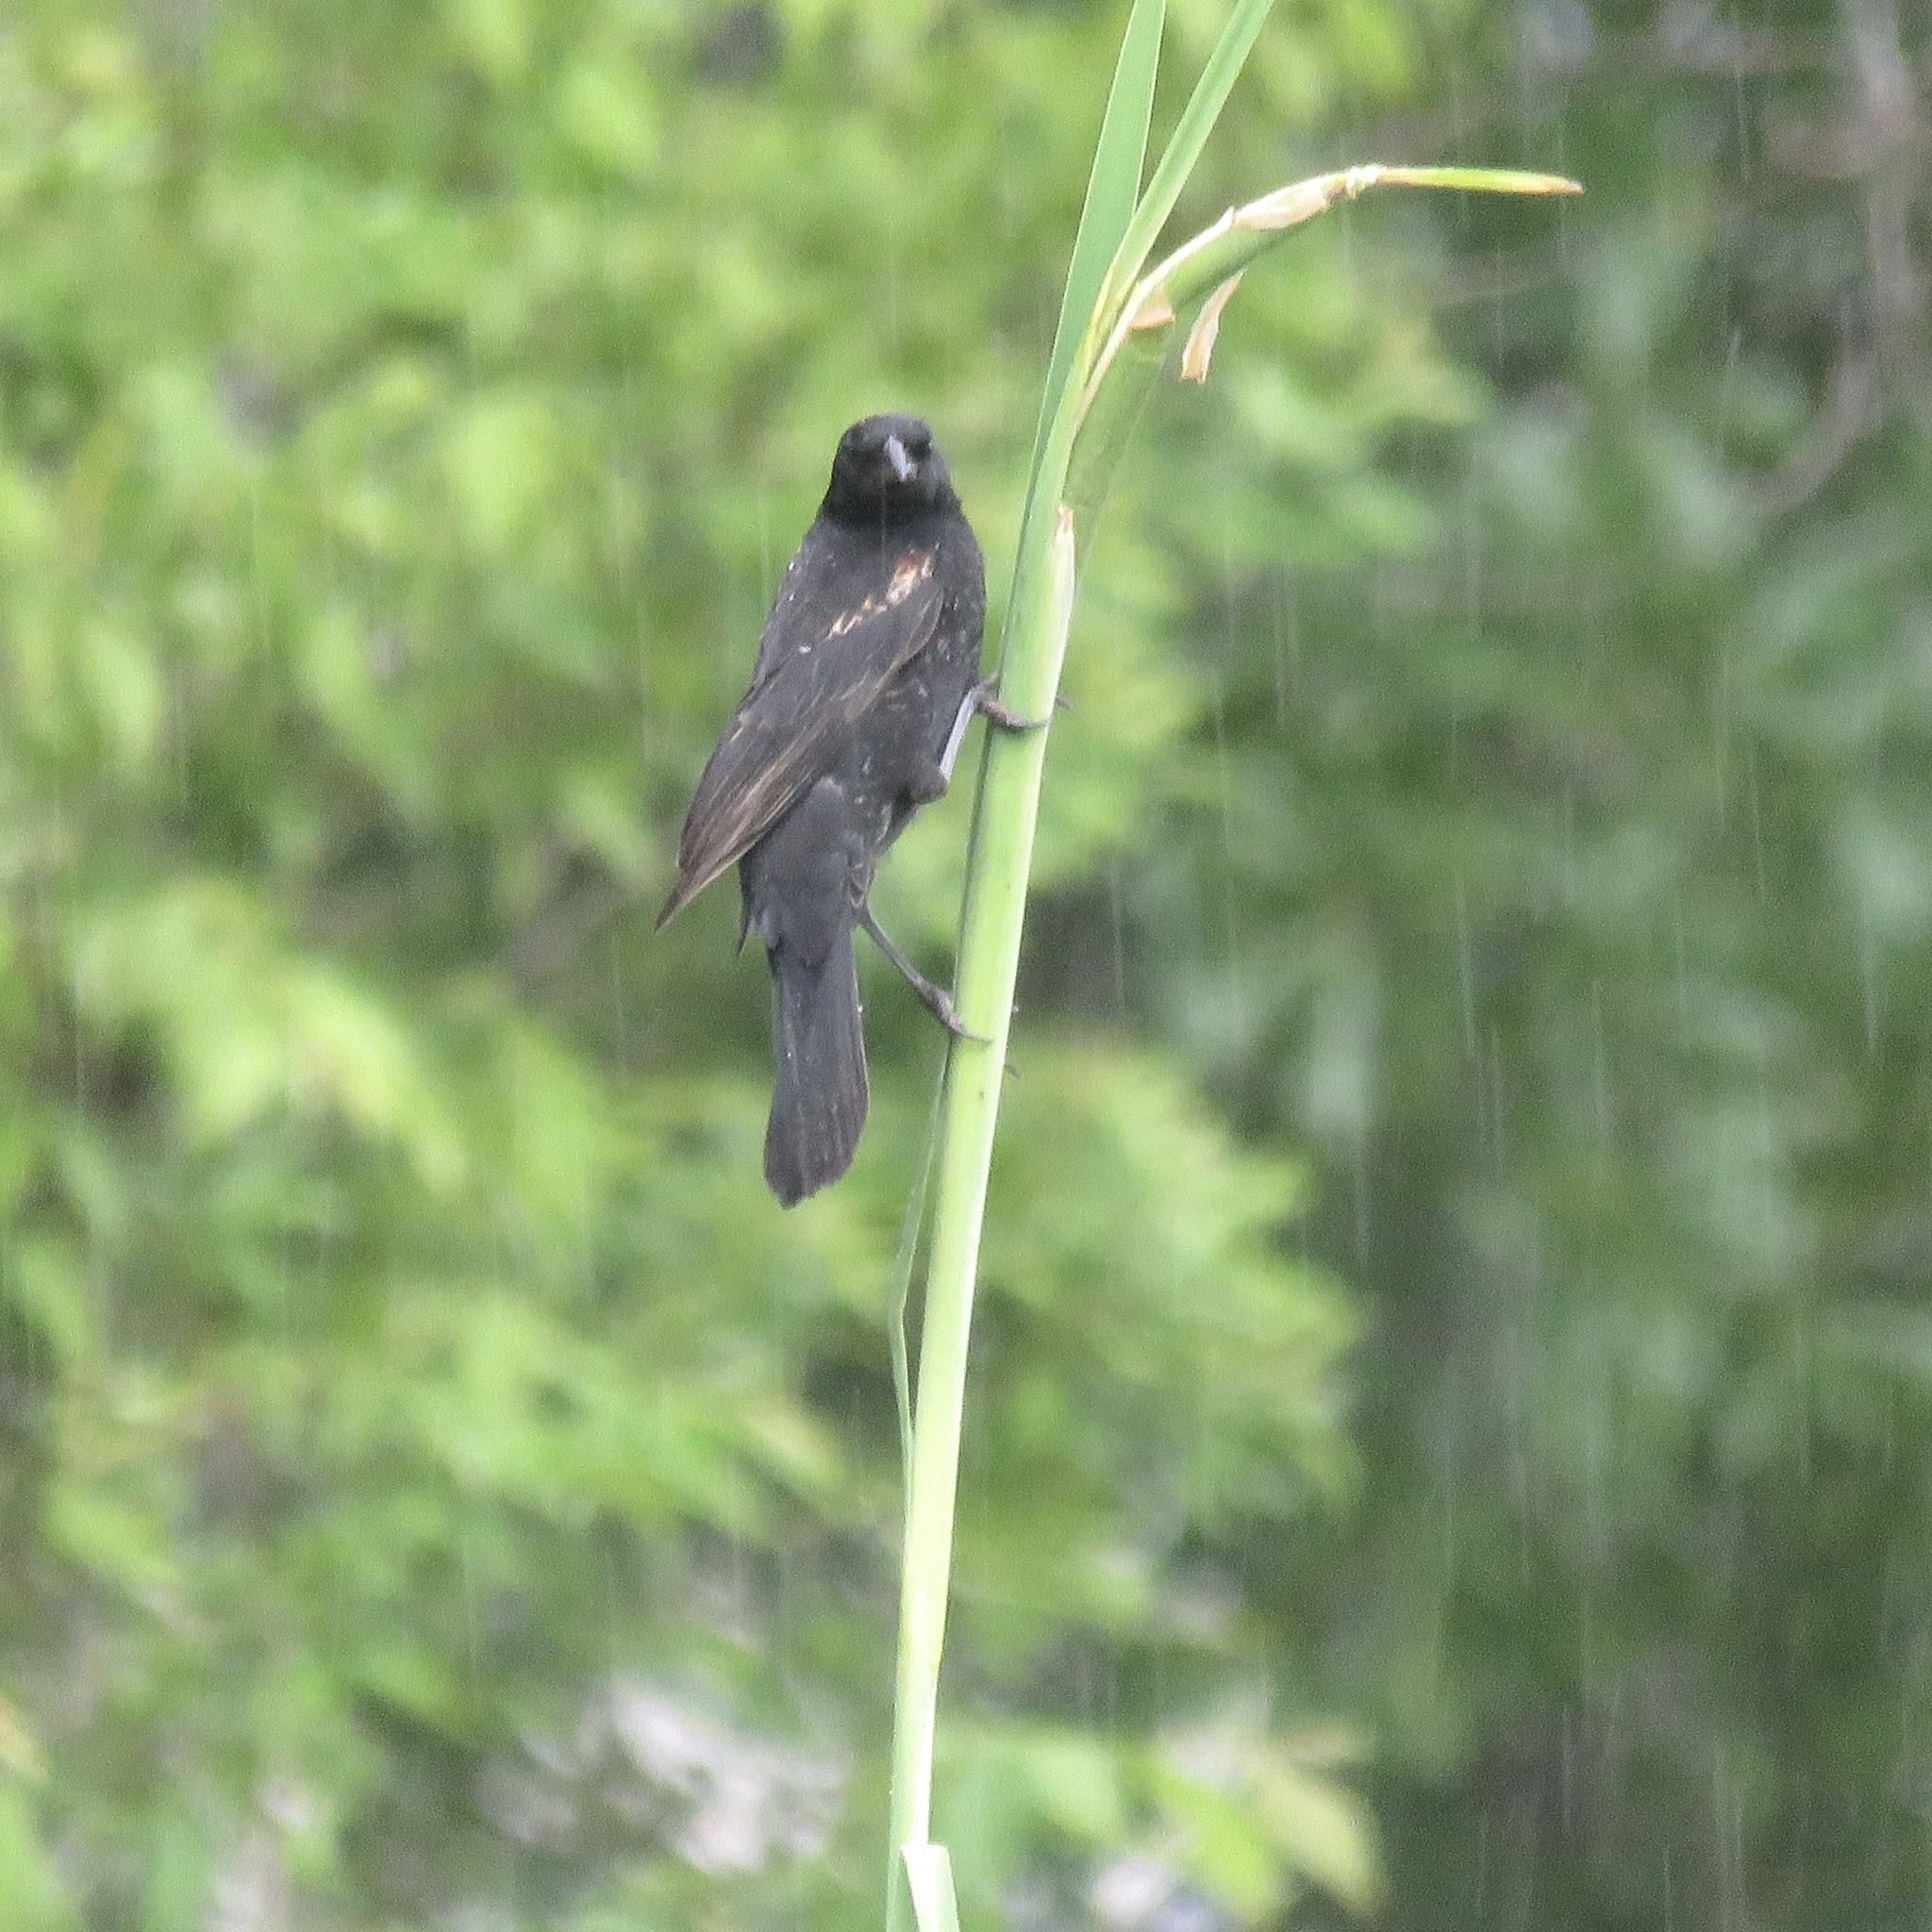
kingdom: Animalia
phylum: Chordata
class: Aves
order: Passeriformes
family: Icteridae
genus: Agelaius
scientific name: Agelaius phoeniceus
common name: Red-winged blackbird
